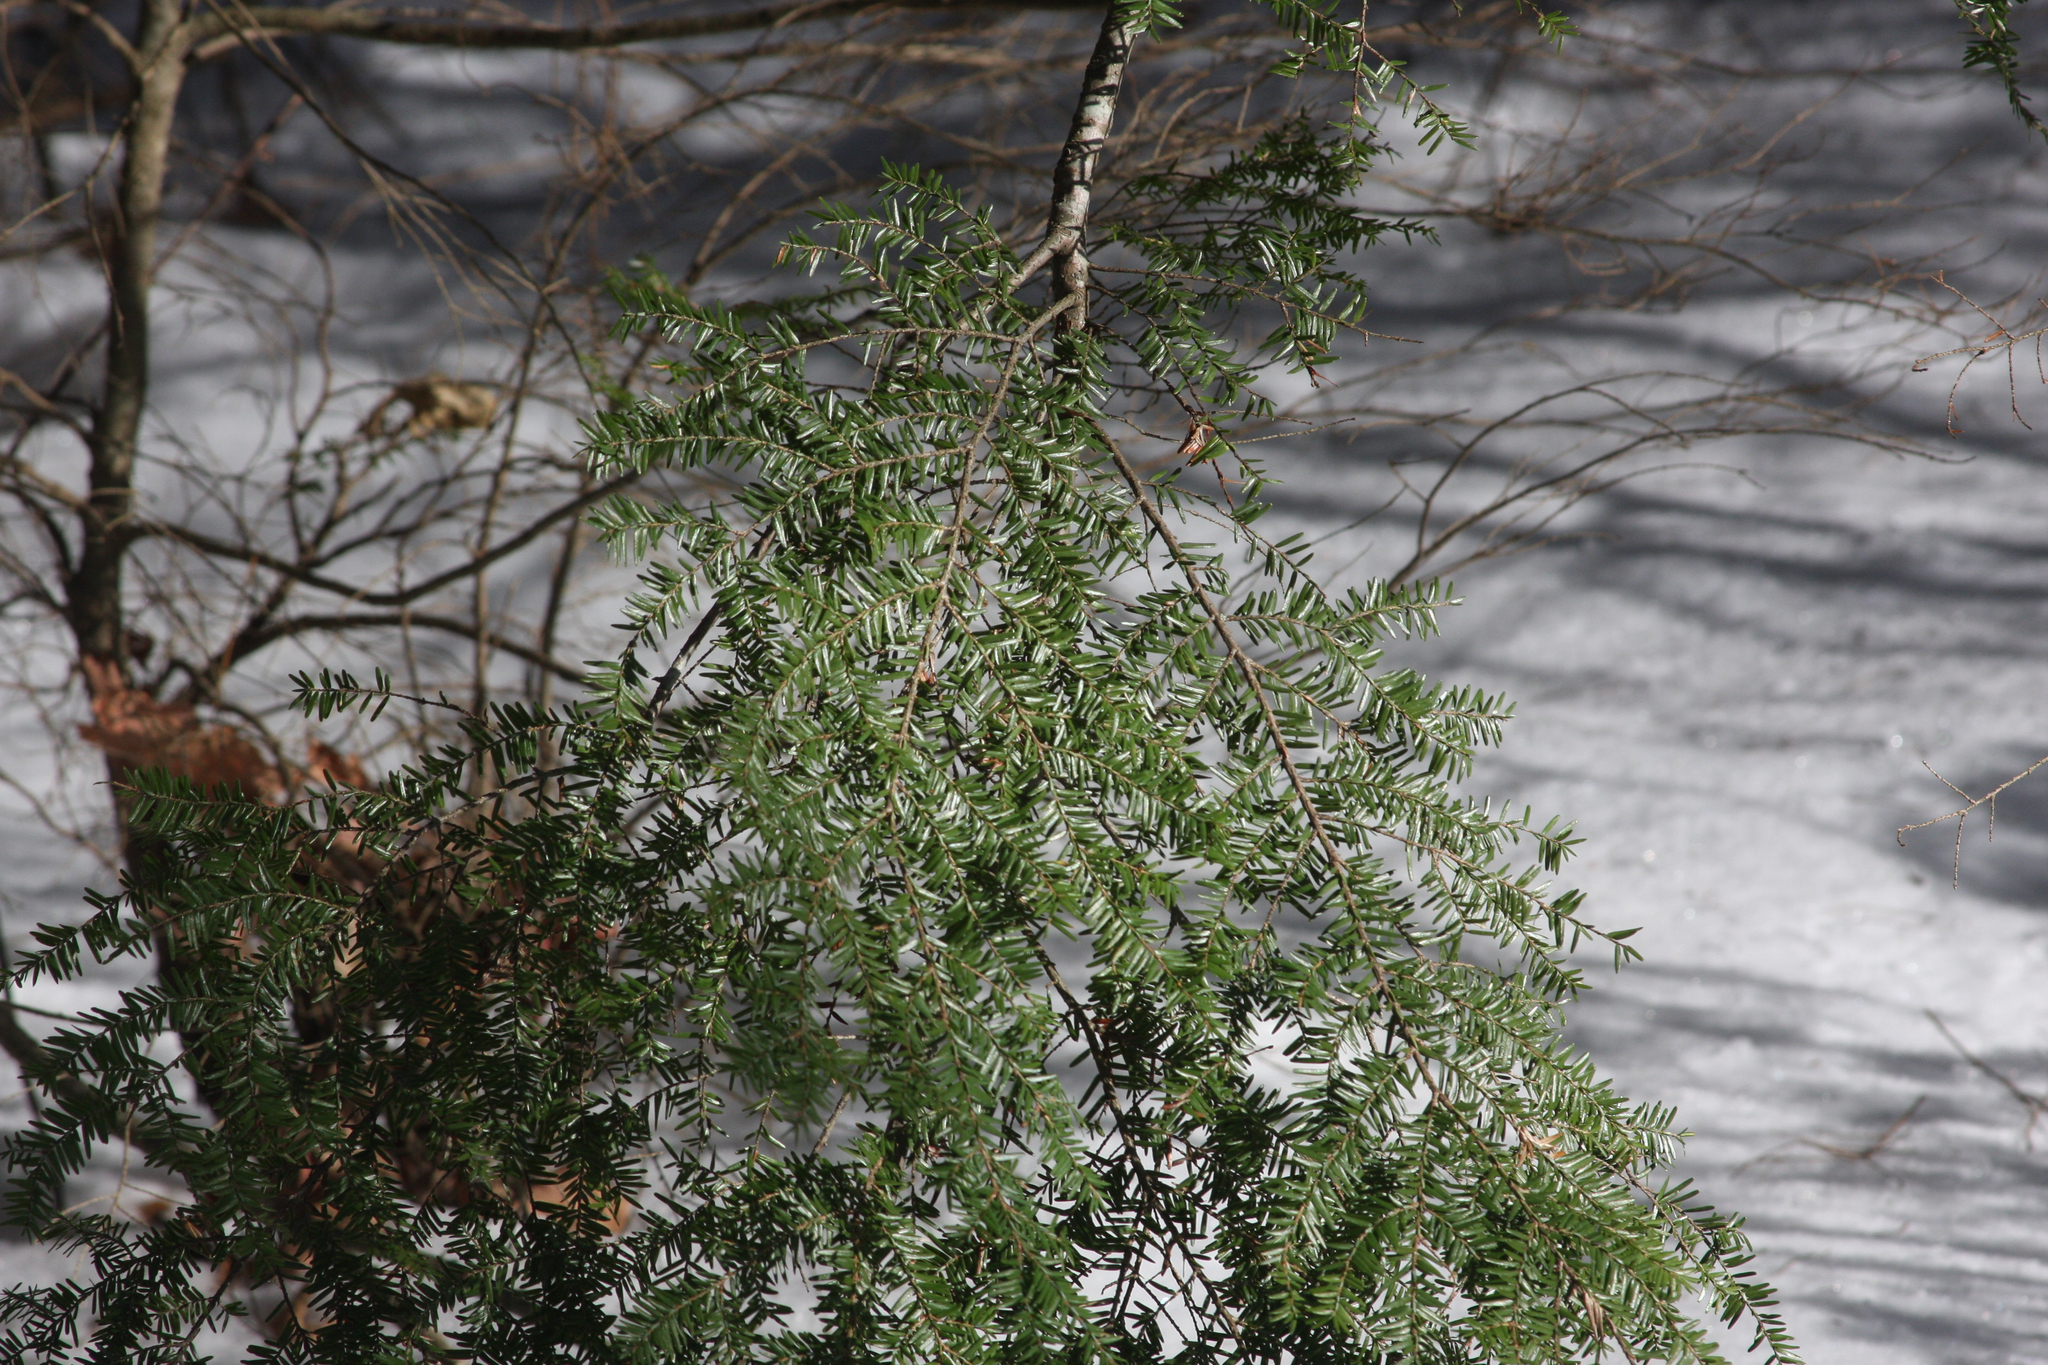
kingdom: Plantae
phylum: Tracheophyta
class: Pinopsida
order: Pinales
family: Pinaceae
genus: Tsuga
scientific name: Tsuga canadensis
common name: Eastern hemlock
